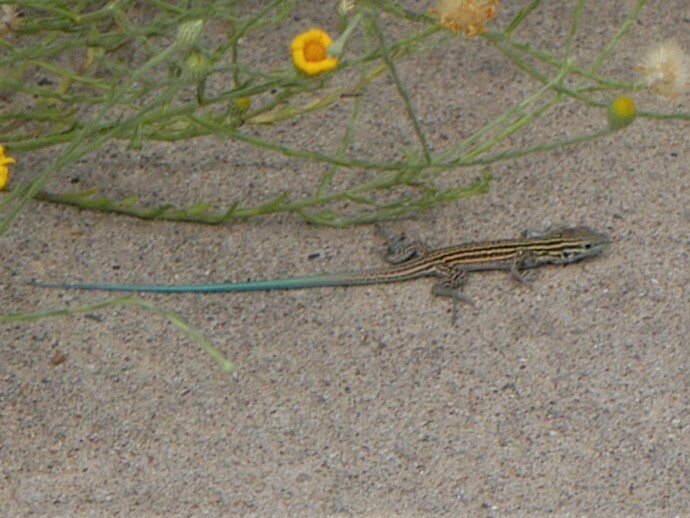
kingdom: Animalia
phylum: Chordata
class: Squamata
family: Teiidae
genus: Aspidoscelis
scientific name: Aspidoscelis neomexicanus
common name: New mexico whiptail
